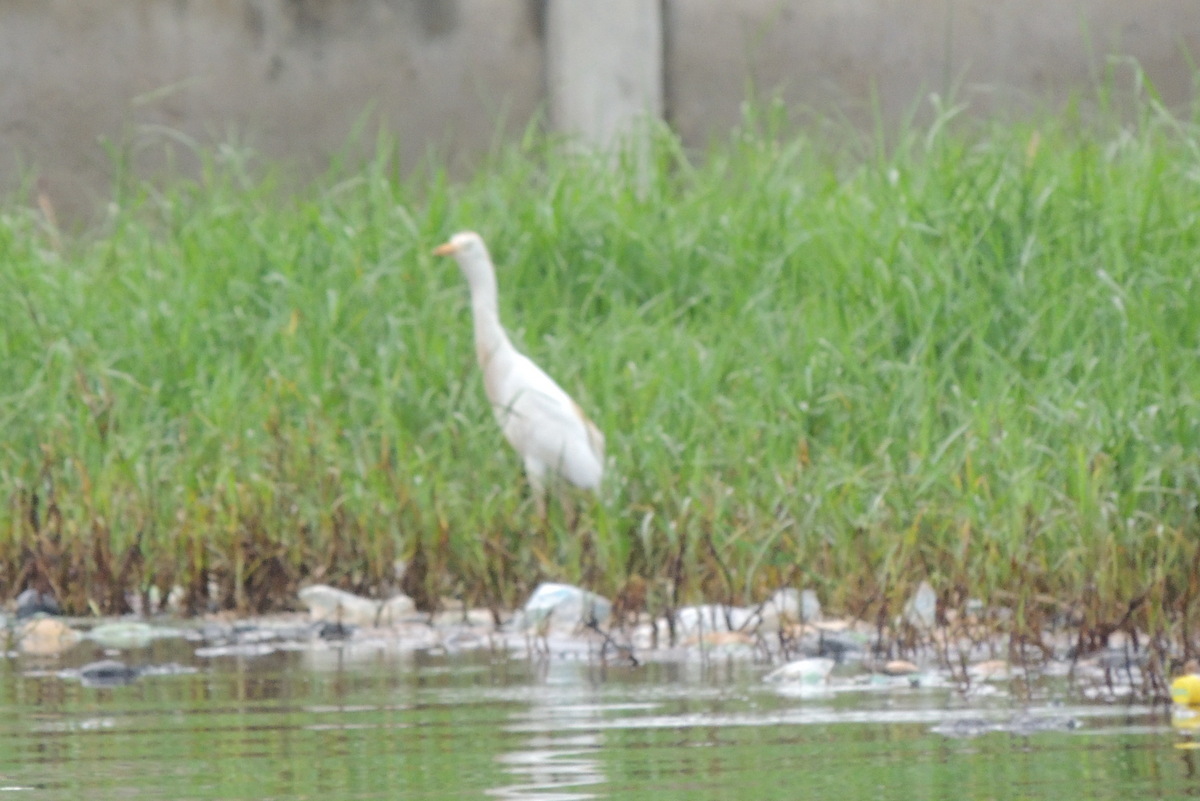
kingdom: Animalia
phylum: Chordata
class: Aves
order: Pelecaniformes
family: Ardeidae
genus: Bubulcus
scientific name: Bubulcus ibis
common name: Cattle egret
